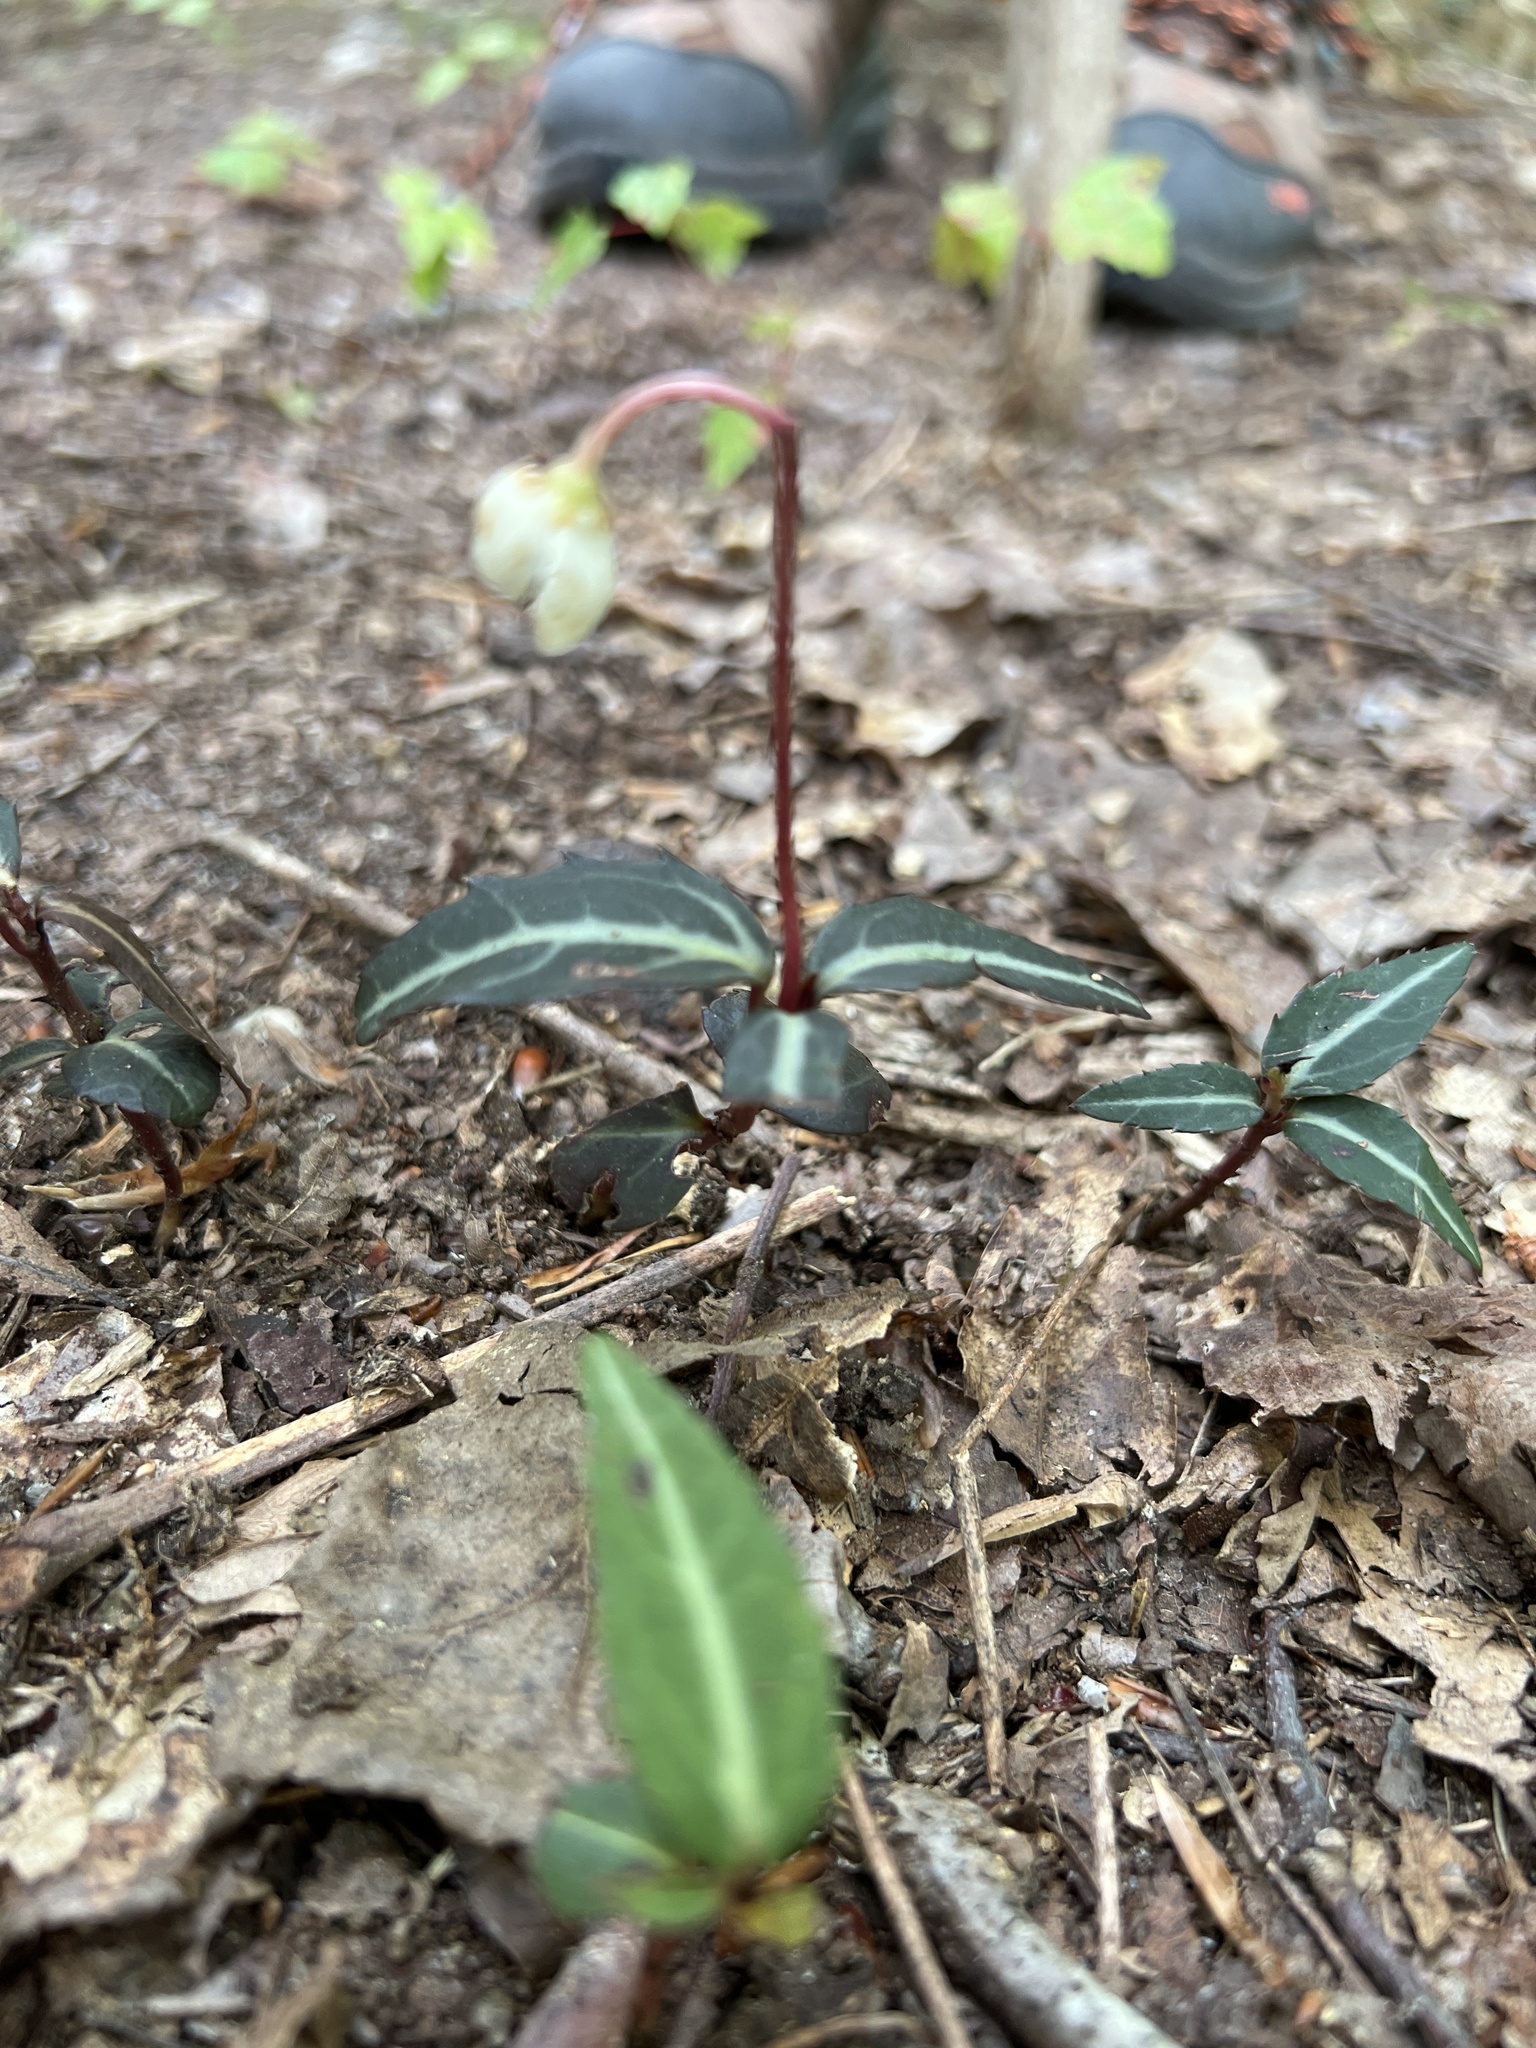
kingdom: Plantae
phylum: Tracheophyta
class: Magnoliopsida
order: Ericales
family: Ericaceae
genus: Chimaphila
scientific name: Chimaphila maculata
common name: Spotted pipsissewa
